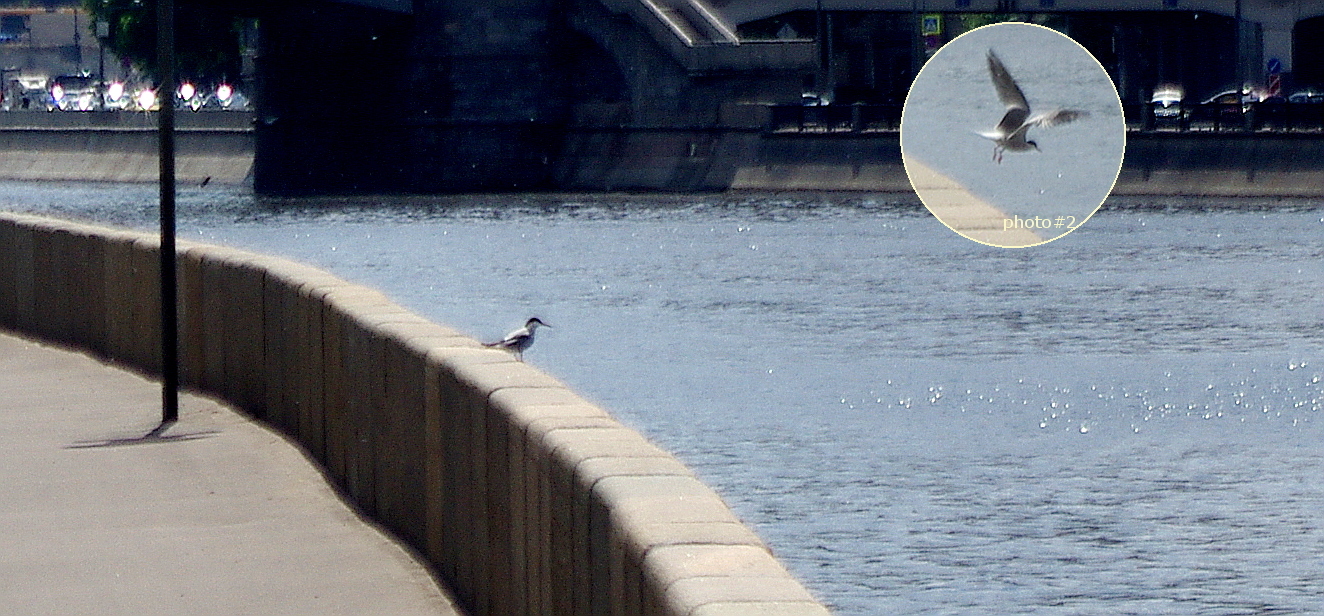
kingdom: Animalia
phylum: Chordata
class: Aves
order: Charadriiformes
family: Laridae
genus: Sterna
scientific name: Sterna hirundo
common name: Common tern
